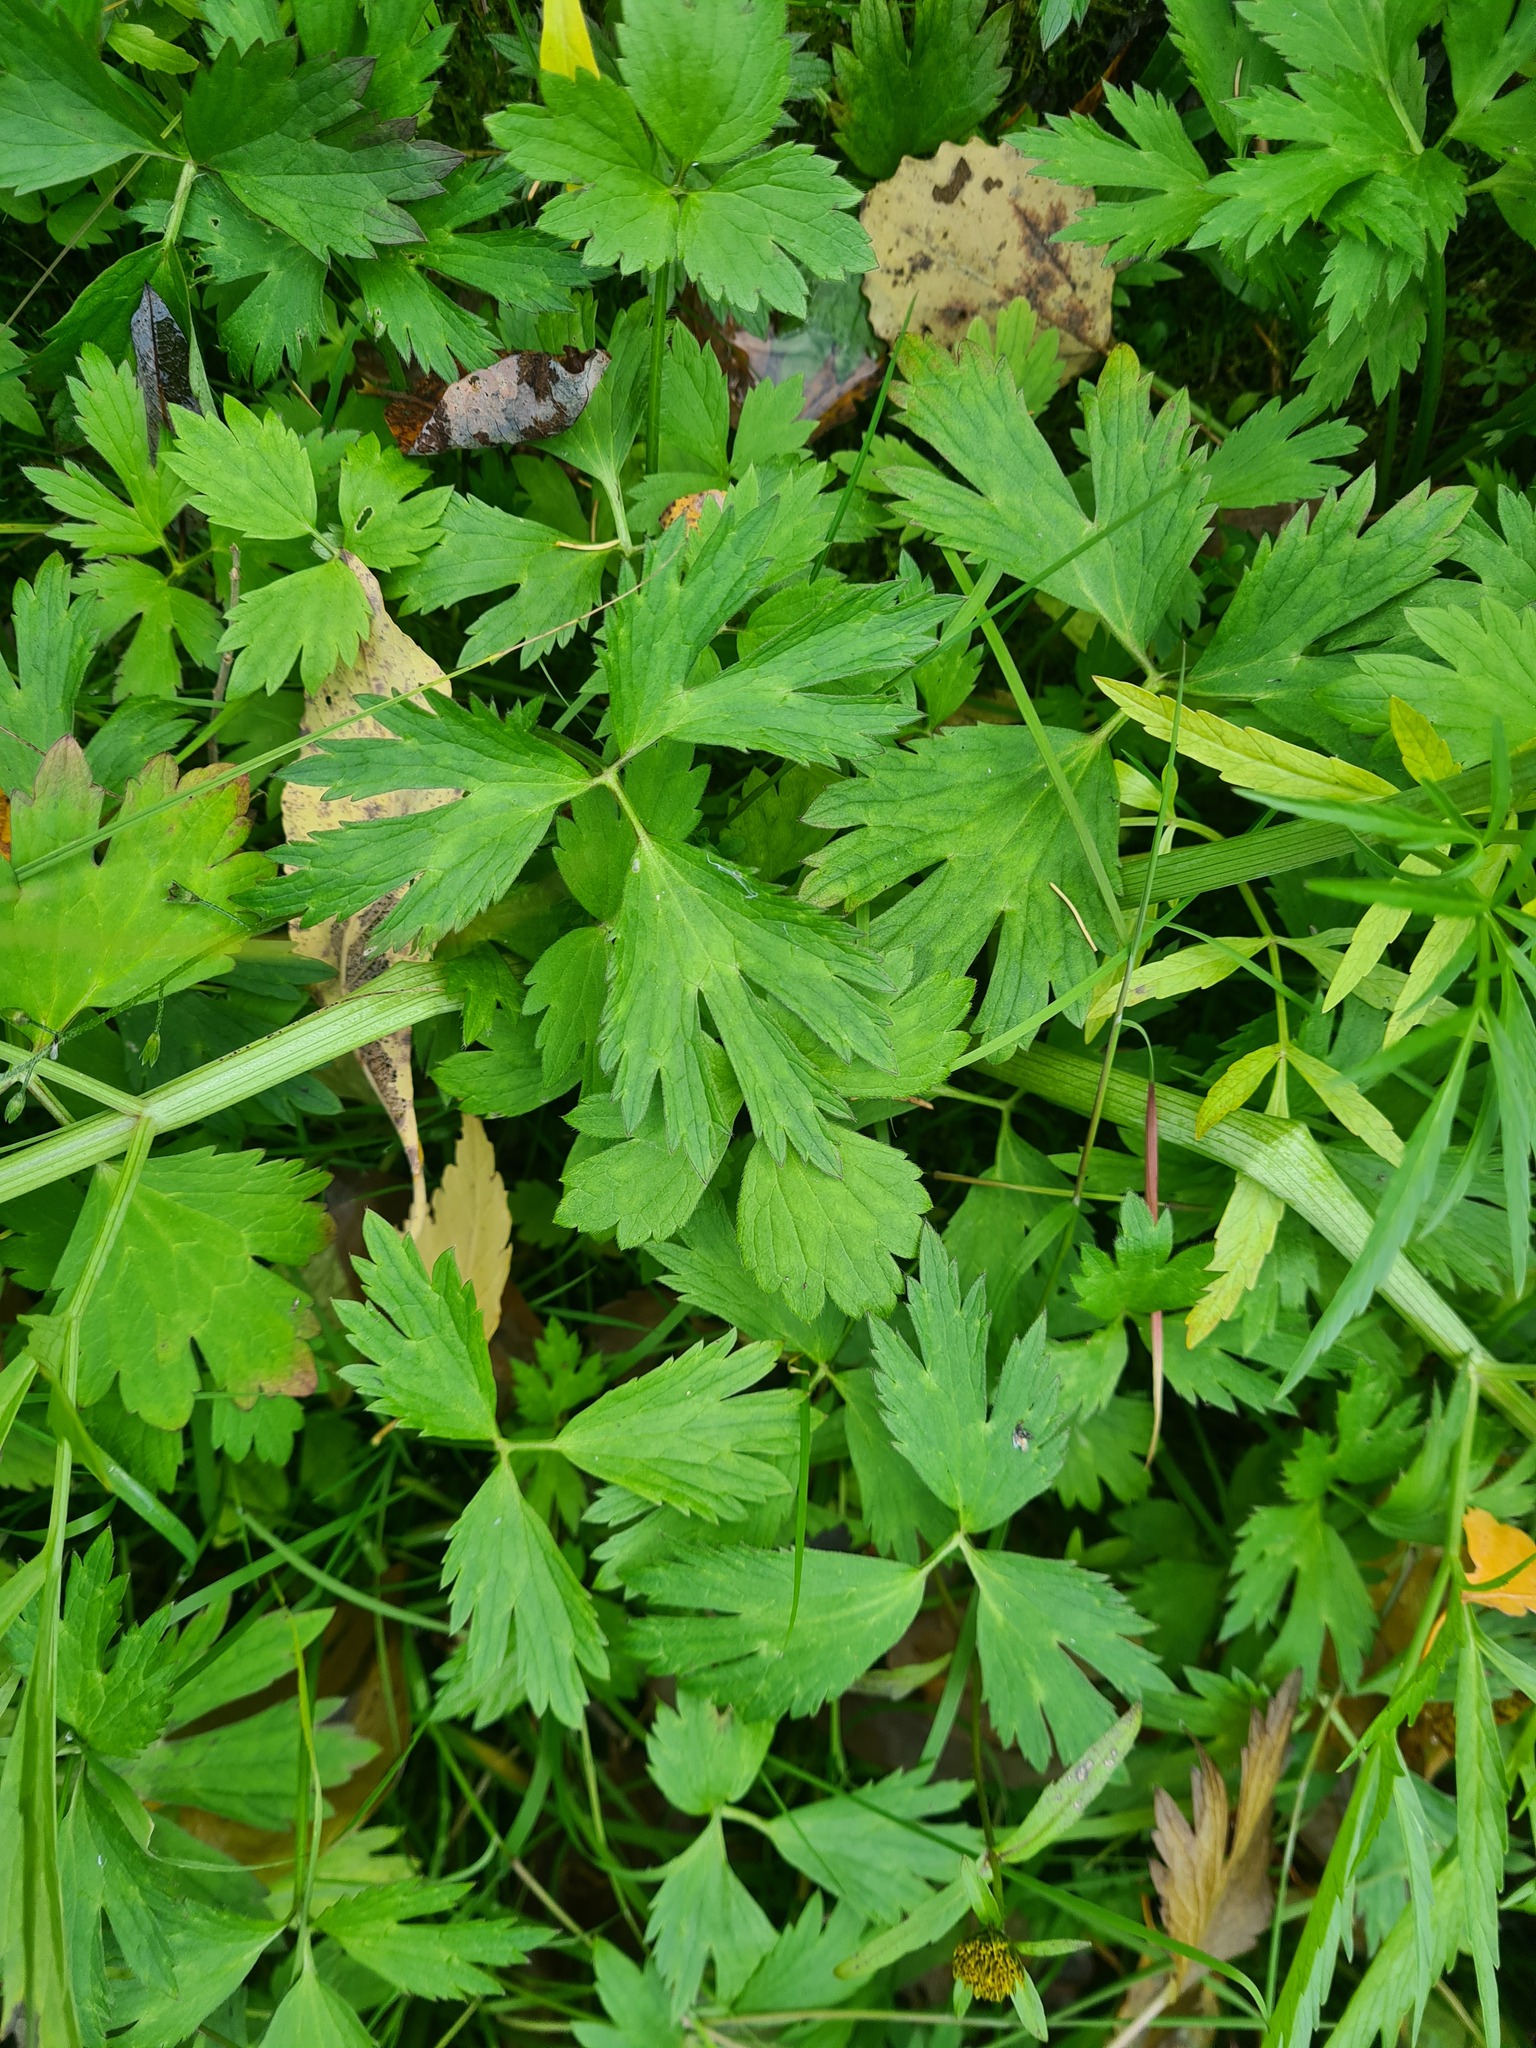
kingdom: Plantae
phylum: Tracheophyta
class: Magnoliopsida
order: Ranunculales
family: Ranunculaceae
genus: Ranunculus
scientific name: Ranunculus repens
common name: Creeping buttercup
